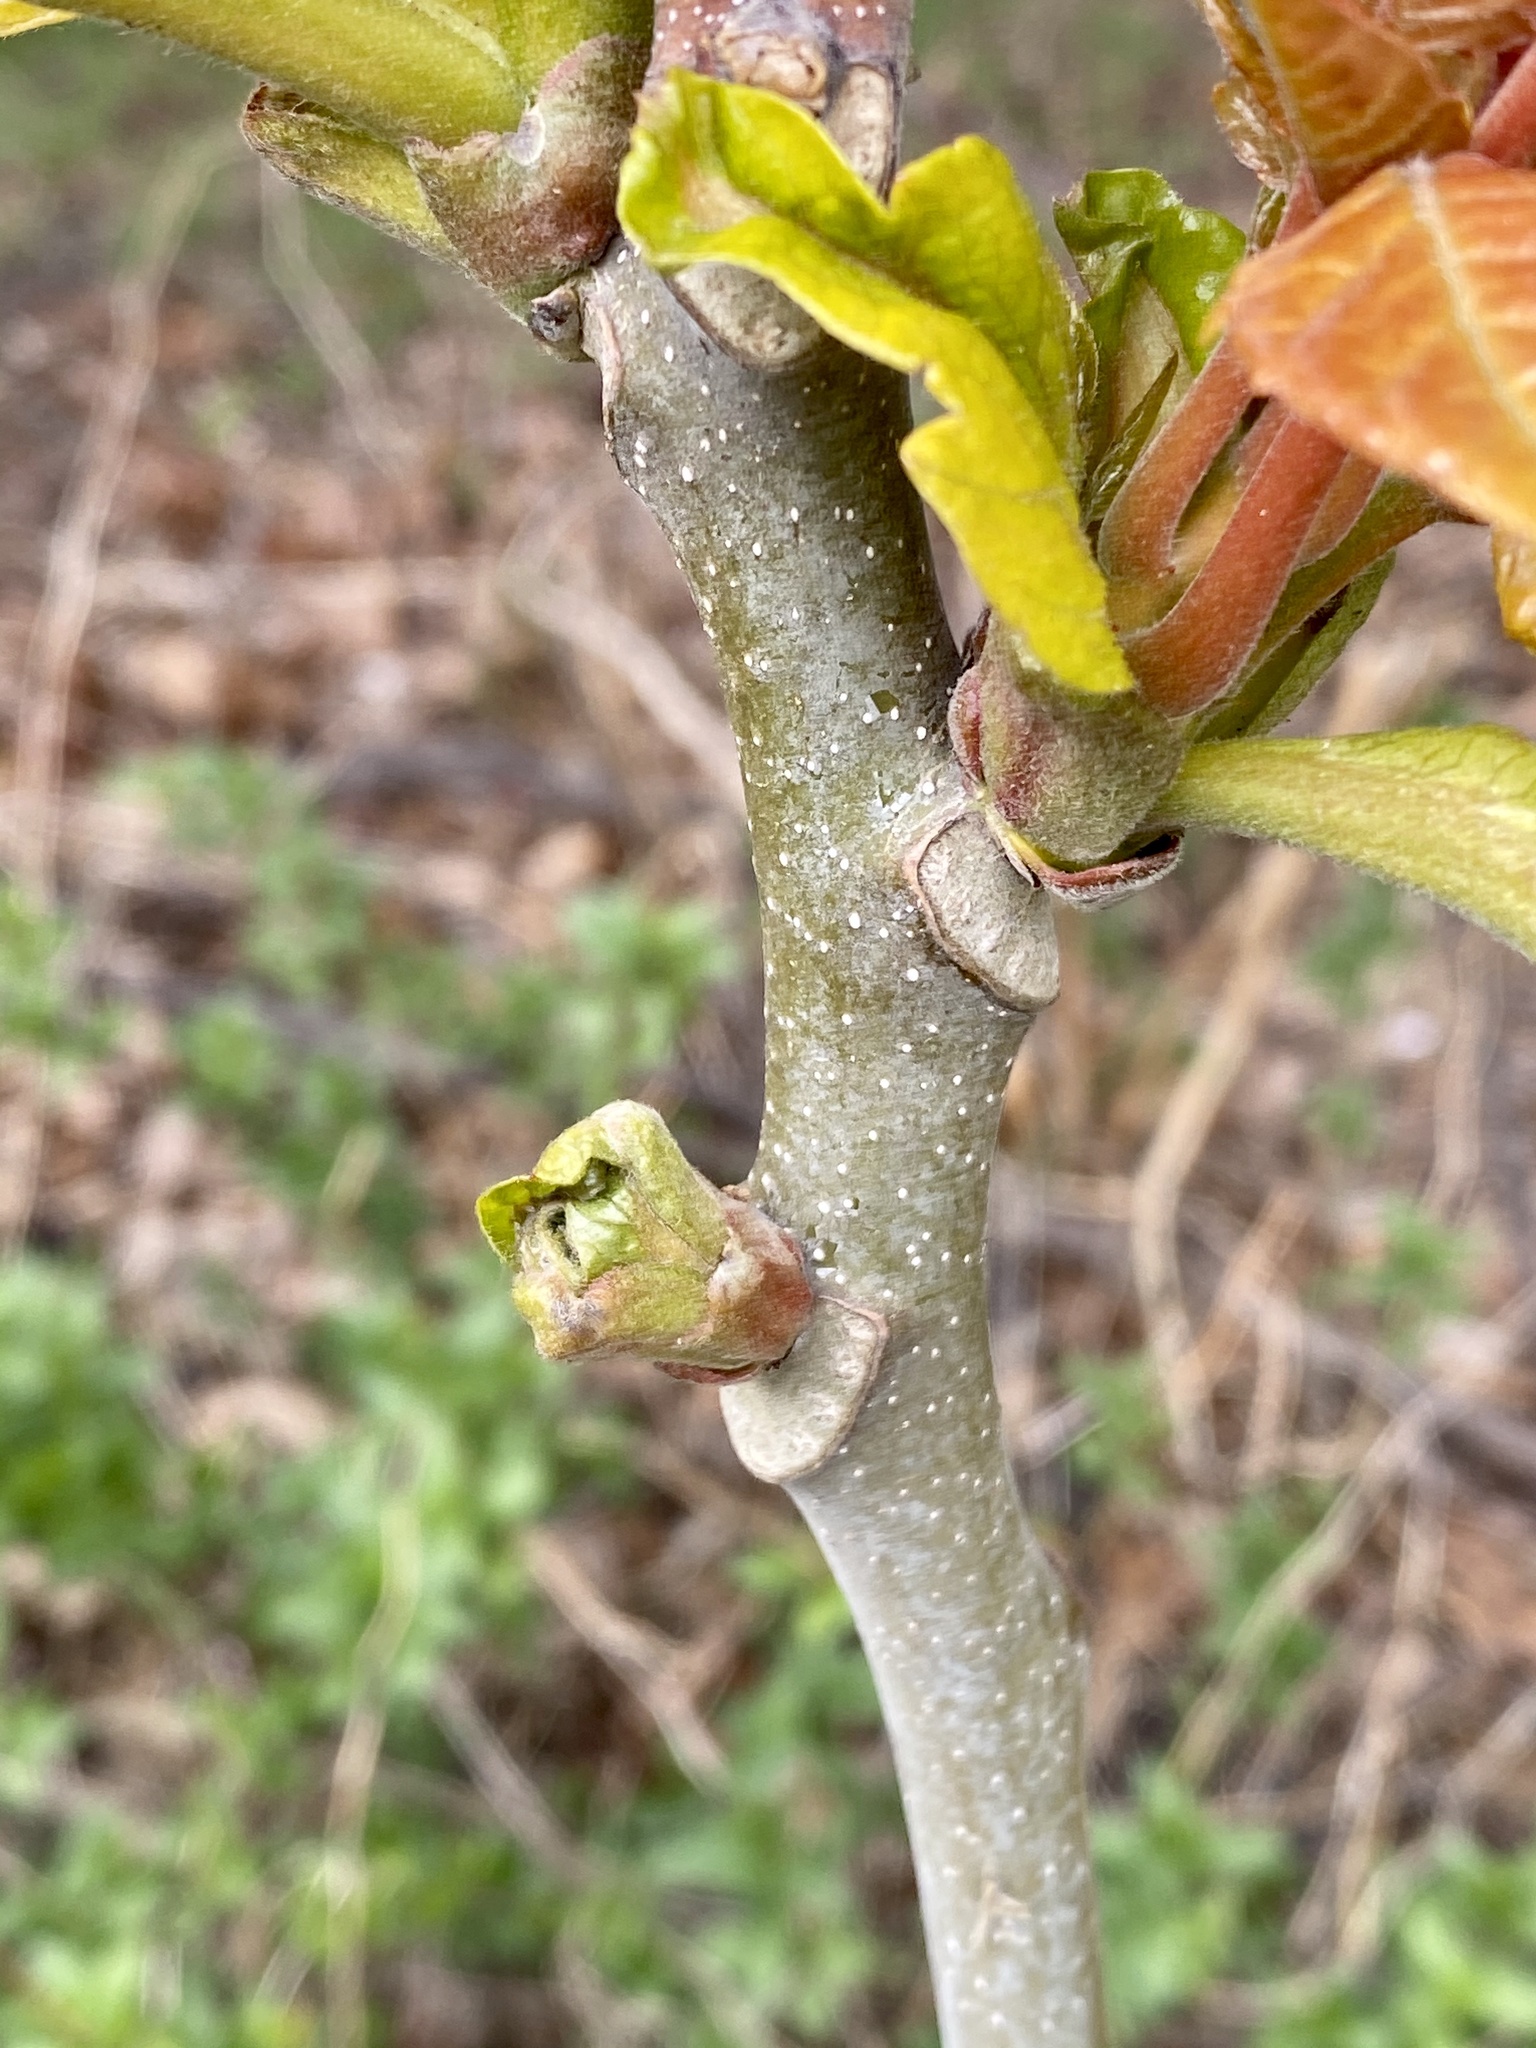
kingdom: Plantae
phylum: Tracheophyta
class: Magnoliopsida
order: Sapindales
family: Simaroubaceae
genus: Ailanthus
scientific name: Ailanthus altissima
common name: Tree-of-heaven
